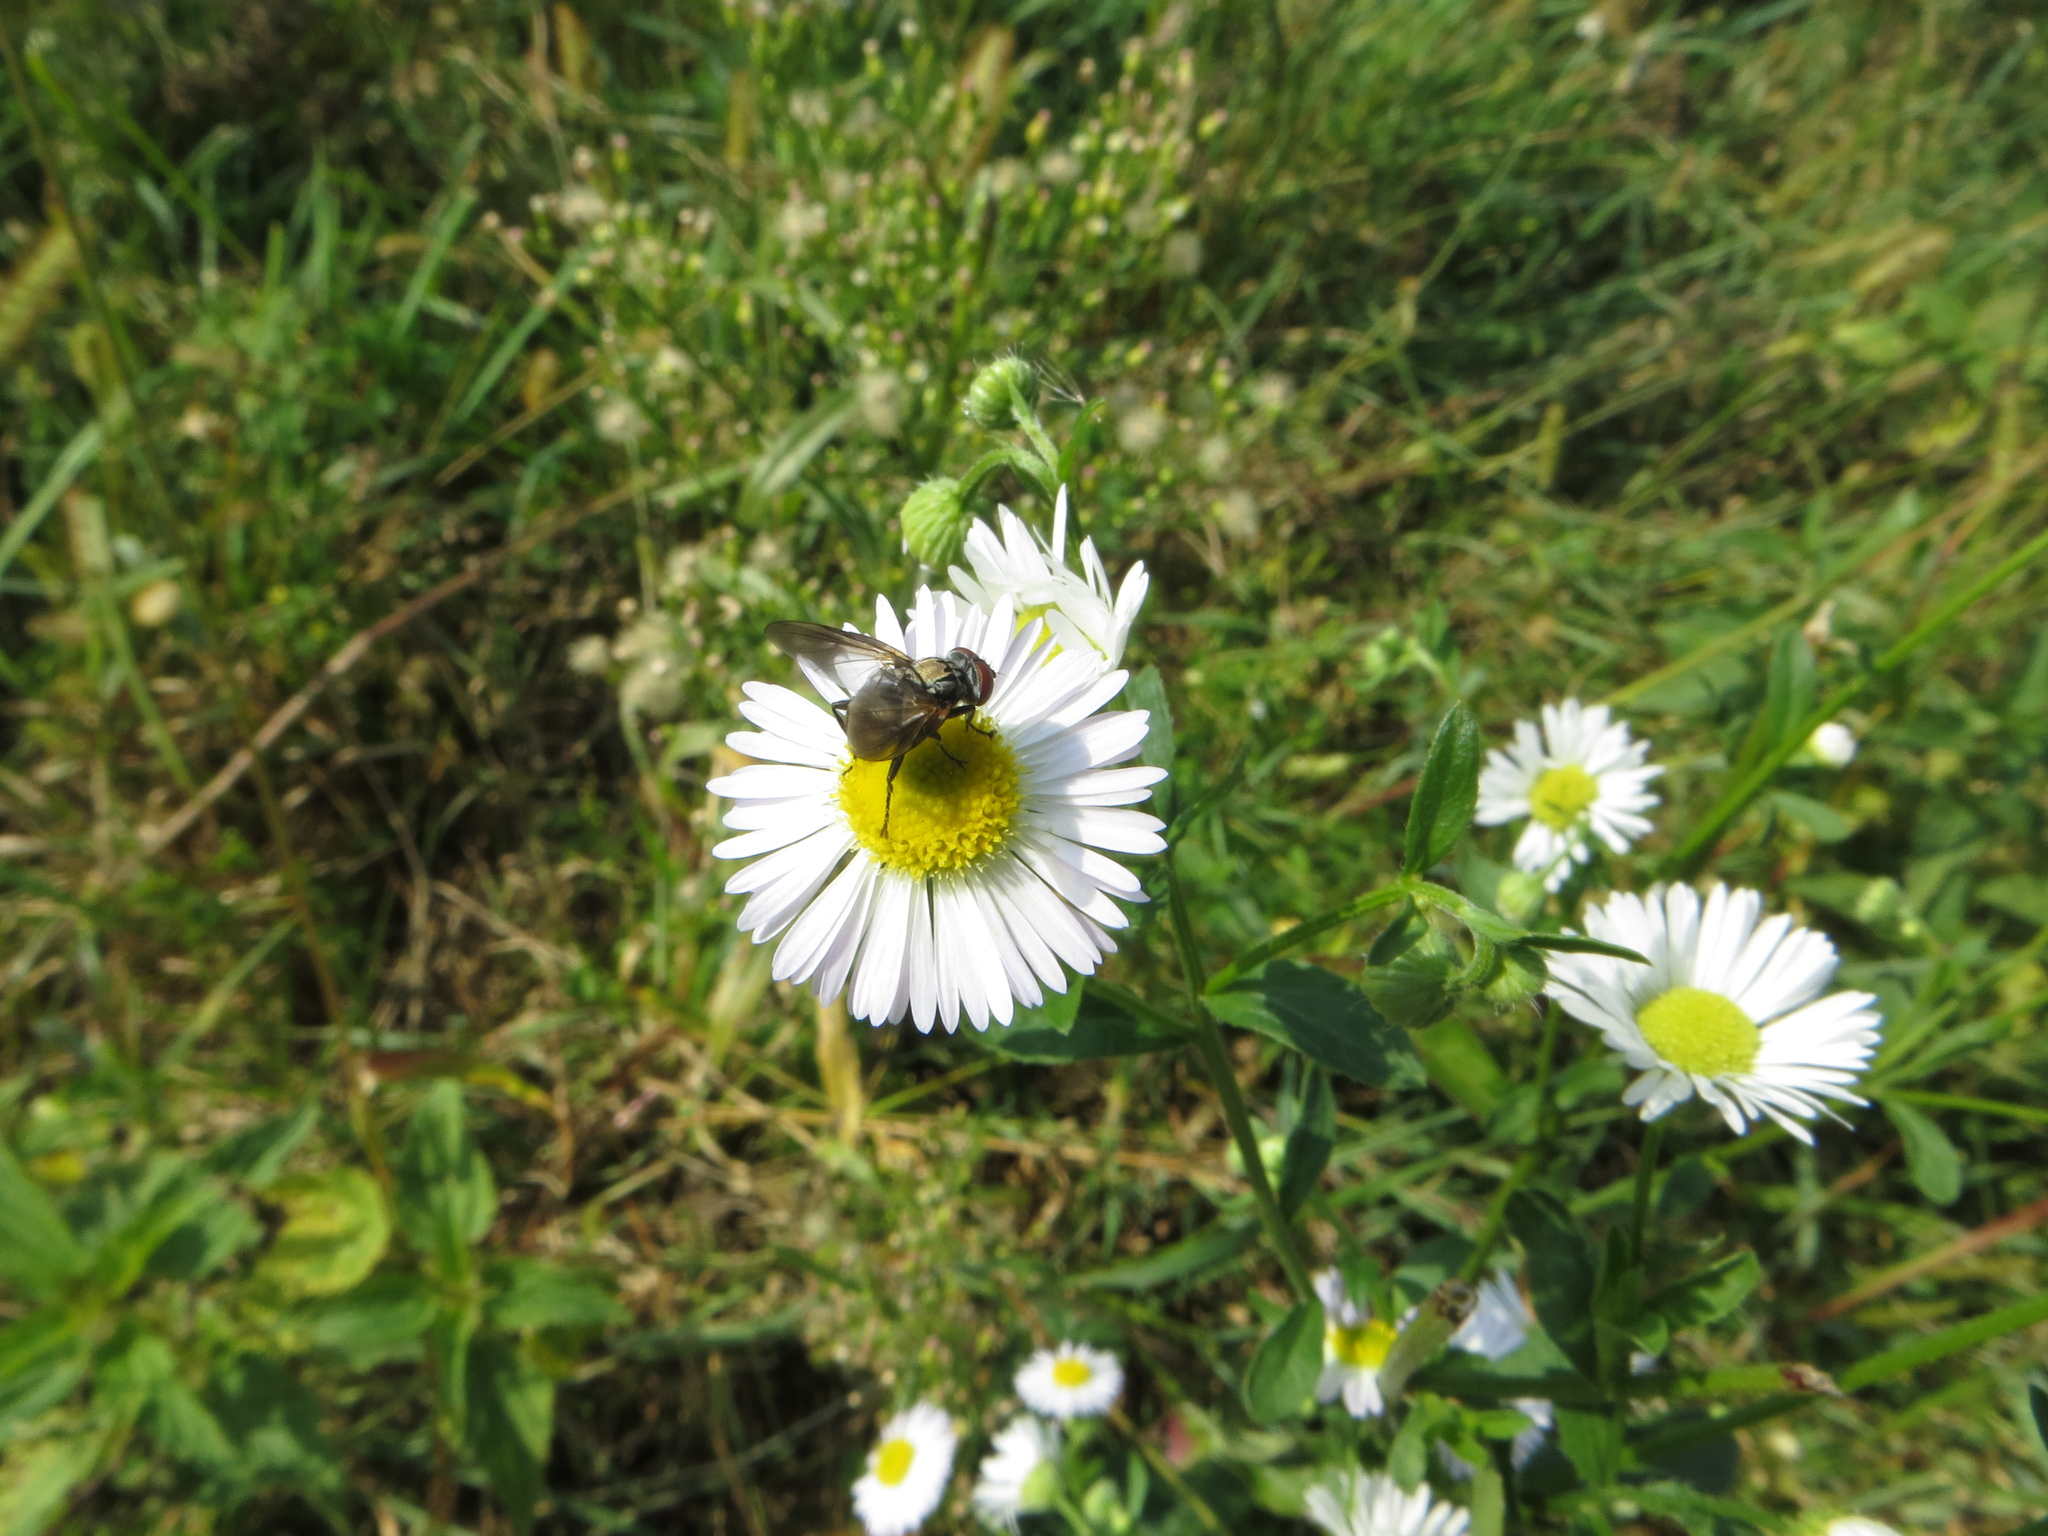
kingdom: Animalia
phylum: Arthropoda
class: Insecta
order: Diptera
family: Tachinidae
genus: Phasia
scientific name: Phasia obesa
